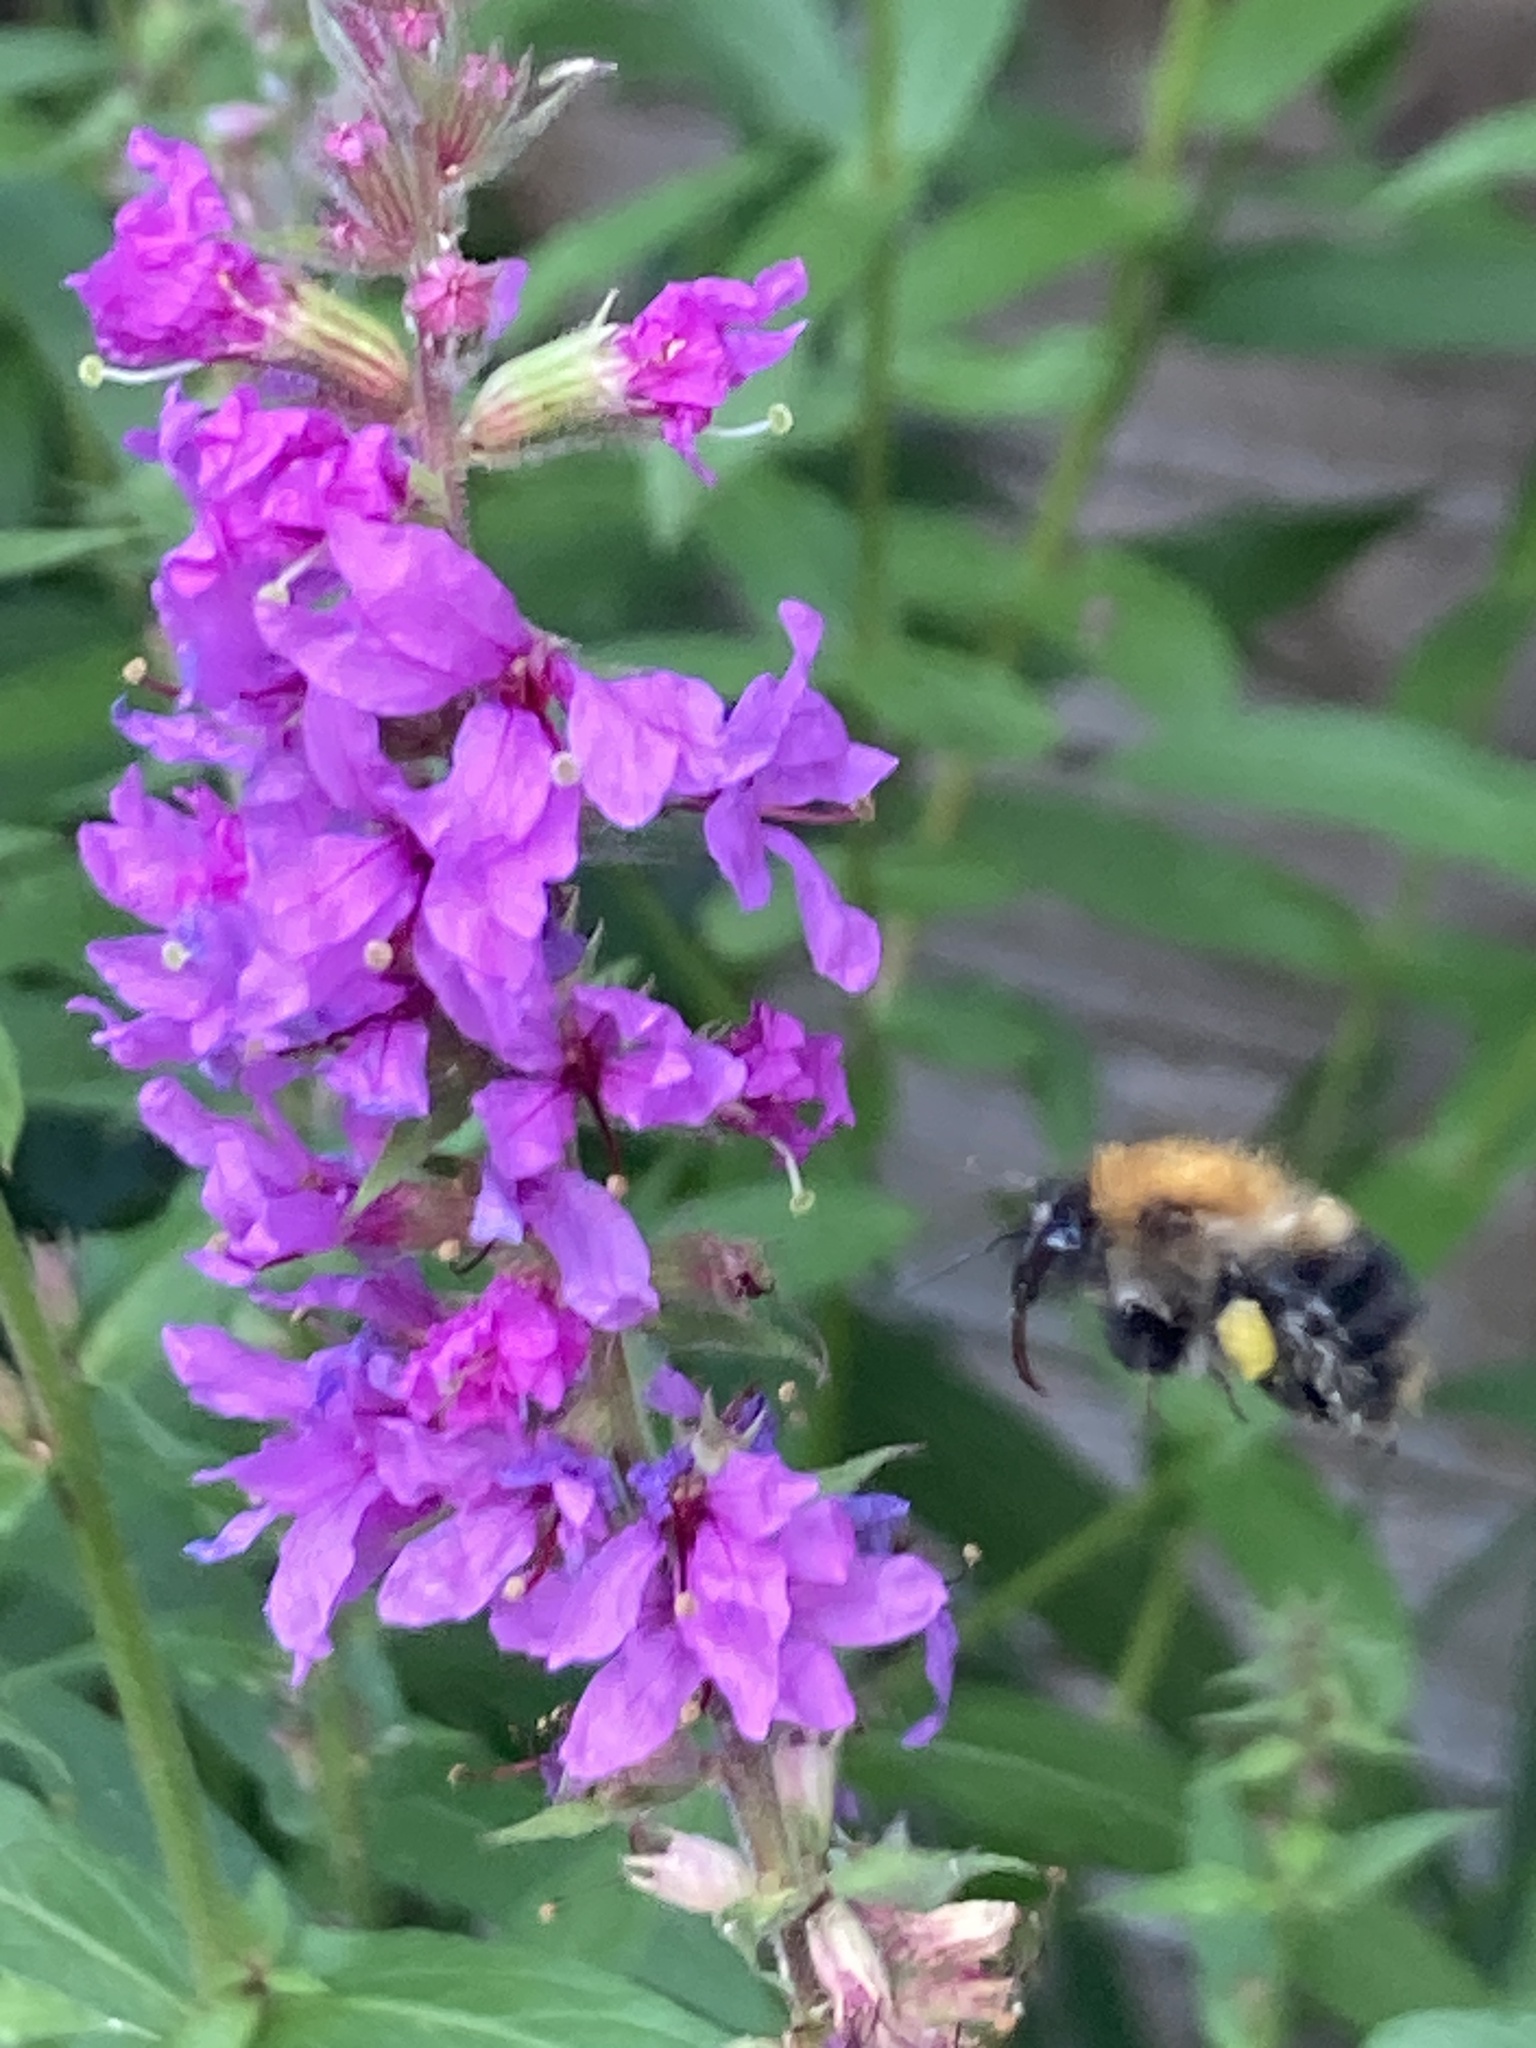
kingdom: Animalia
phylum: Arthropoda
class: Insecta
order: Hymenoptera
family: Apidae
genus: Bombus
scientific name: Bombus pascuorum
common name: Common carder bee
